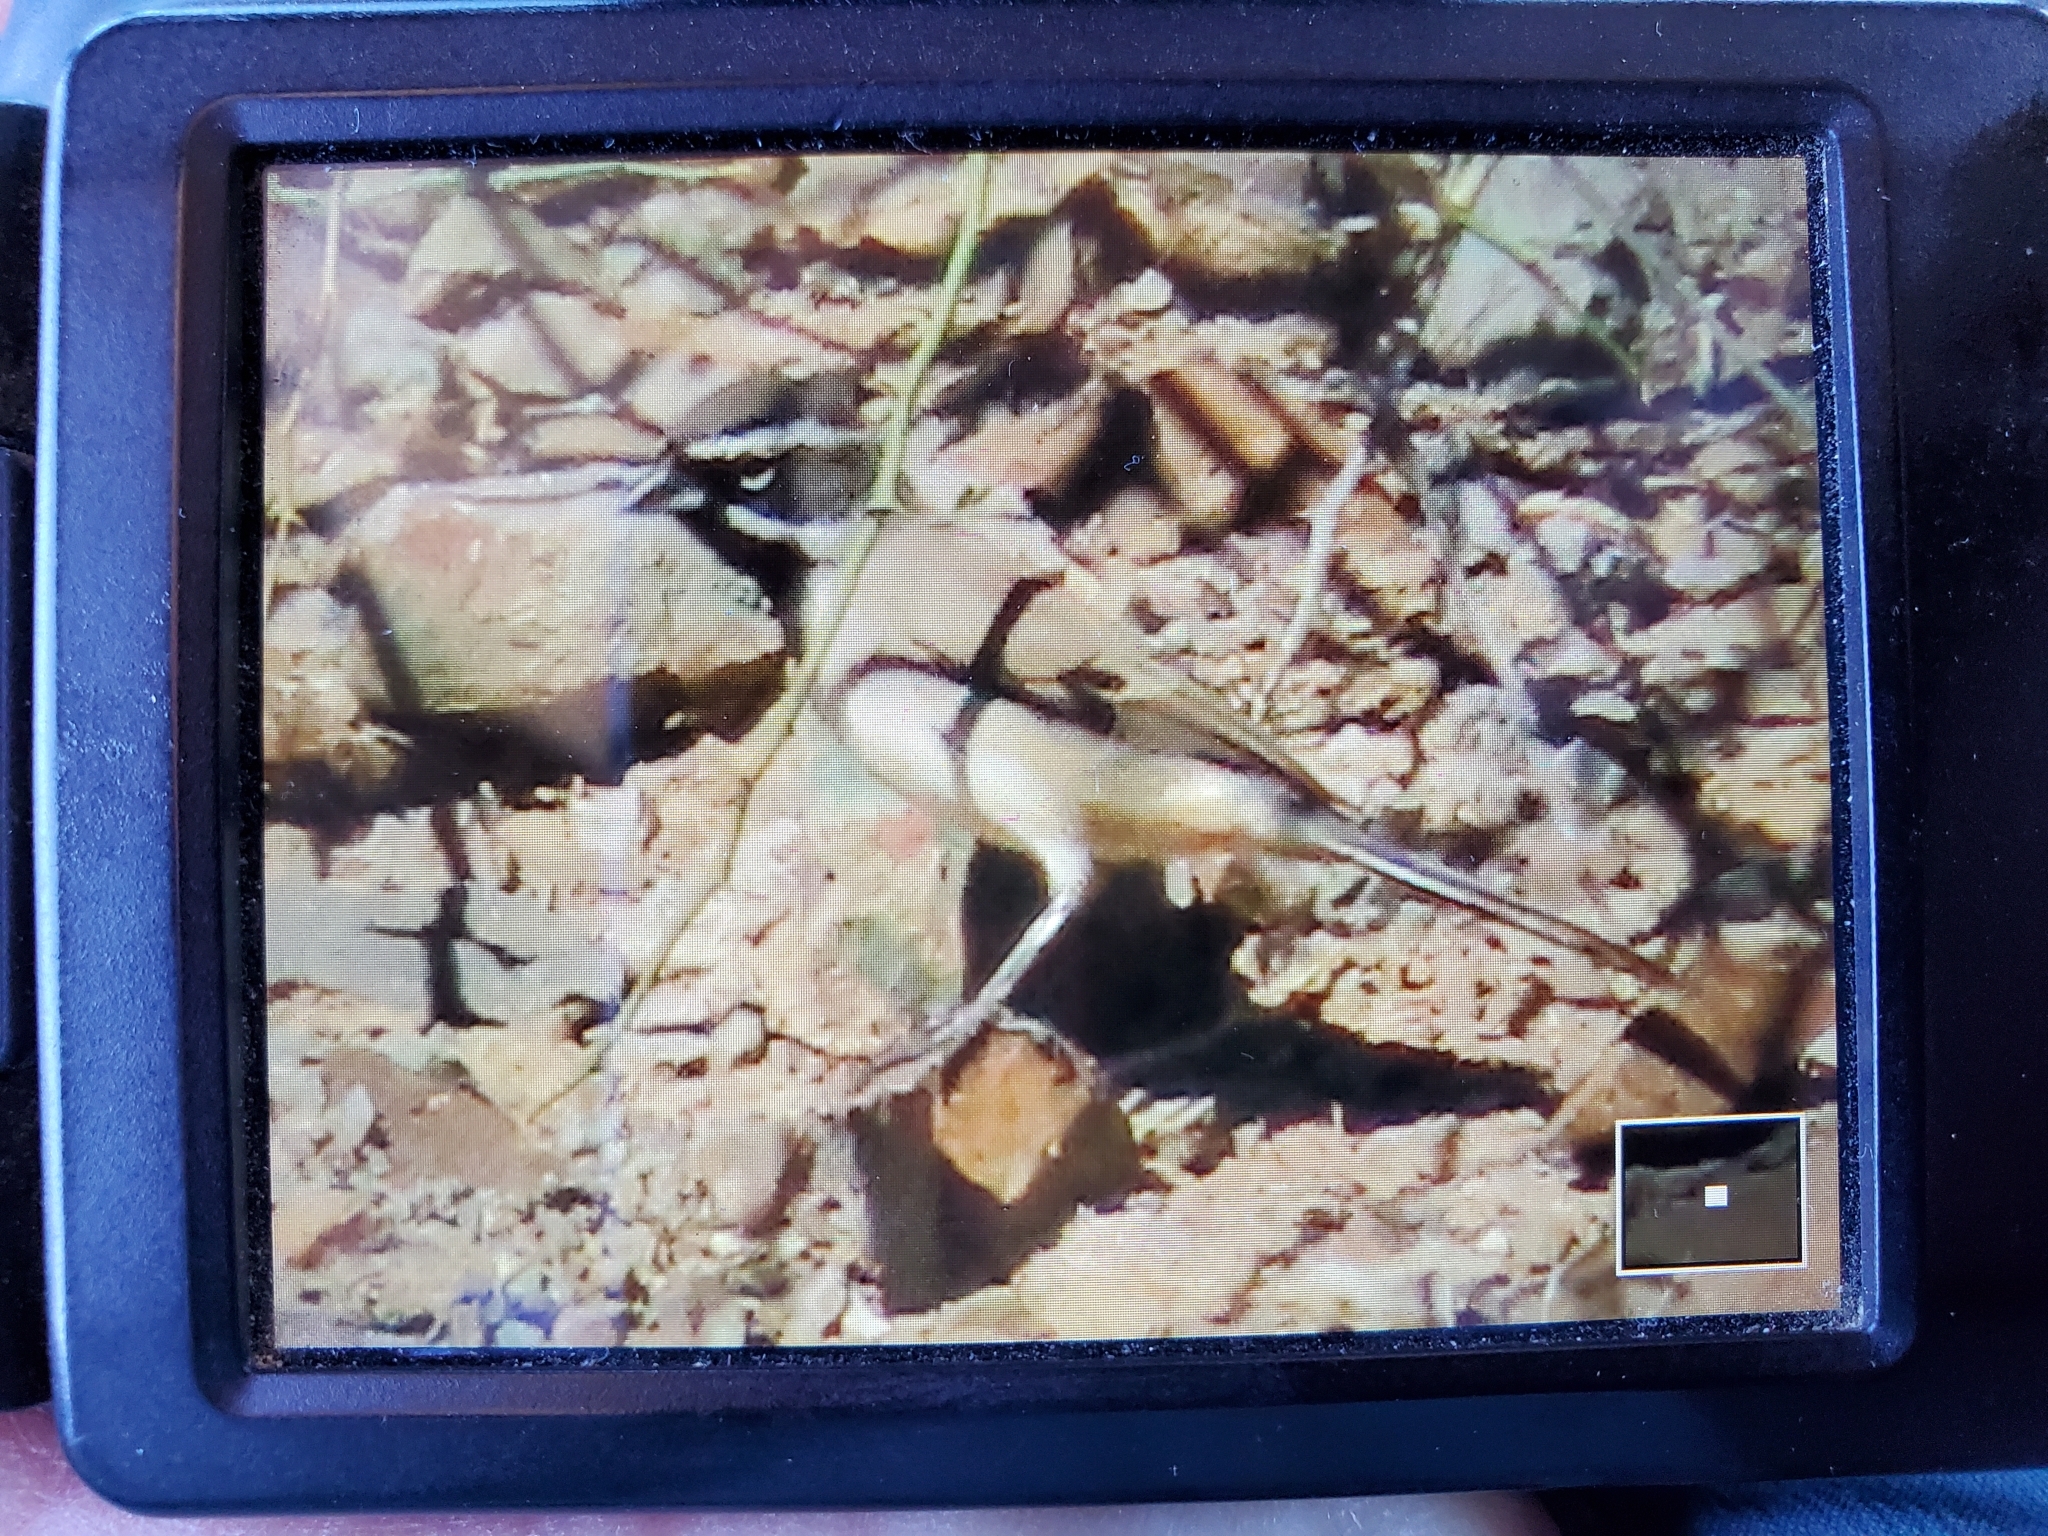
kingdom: Animalia
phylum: Chordata
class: Aves
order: Passeriformes
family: Passerellidae
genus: Amphispiza
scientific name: Amphispiza bilineata
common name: Black-throated sparrow
